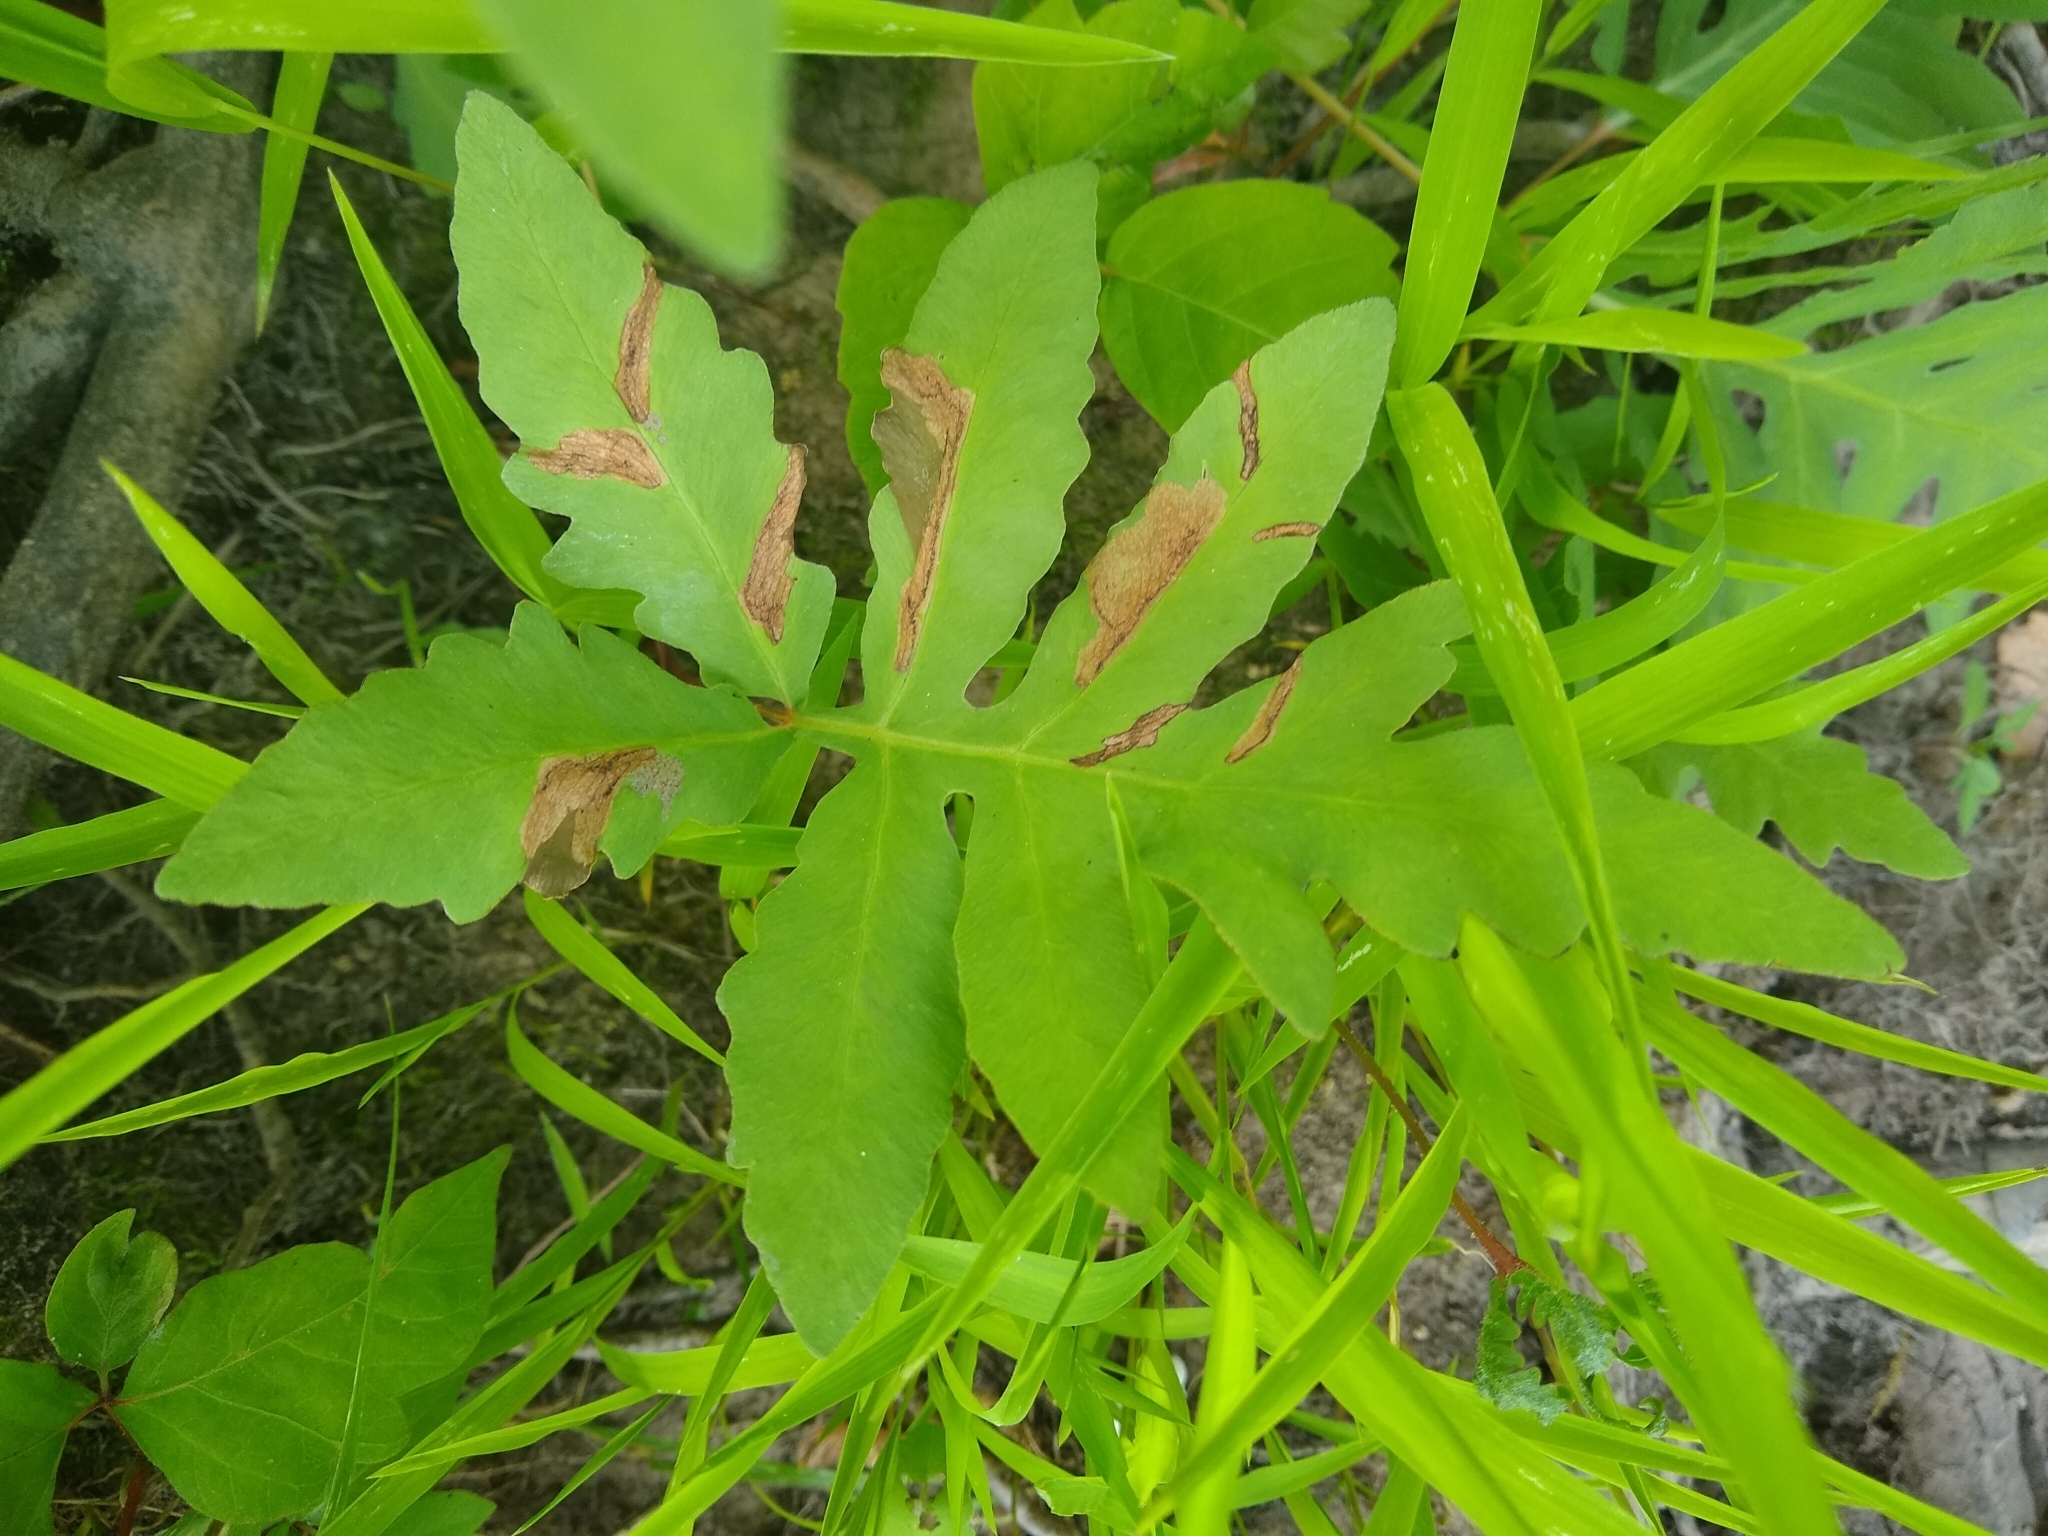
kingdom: Plantae
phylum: Tracheophyta
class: Polypodiopsida
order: Polypodiales
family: Onocleaceae
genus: Onoclea
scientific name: Onoclea sensibilis
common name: Sensitive fern
